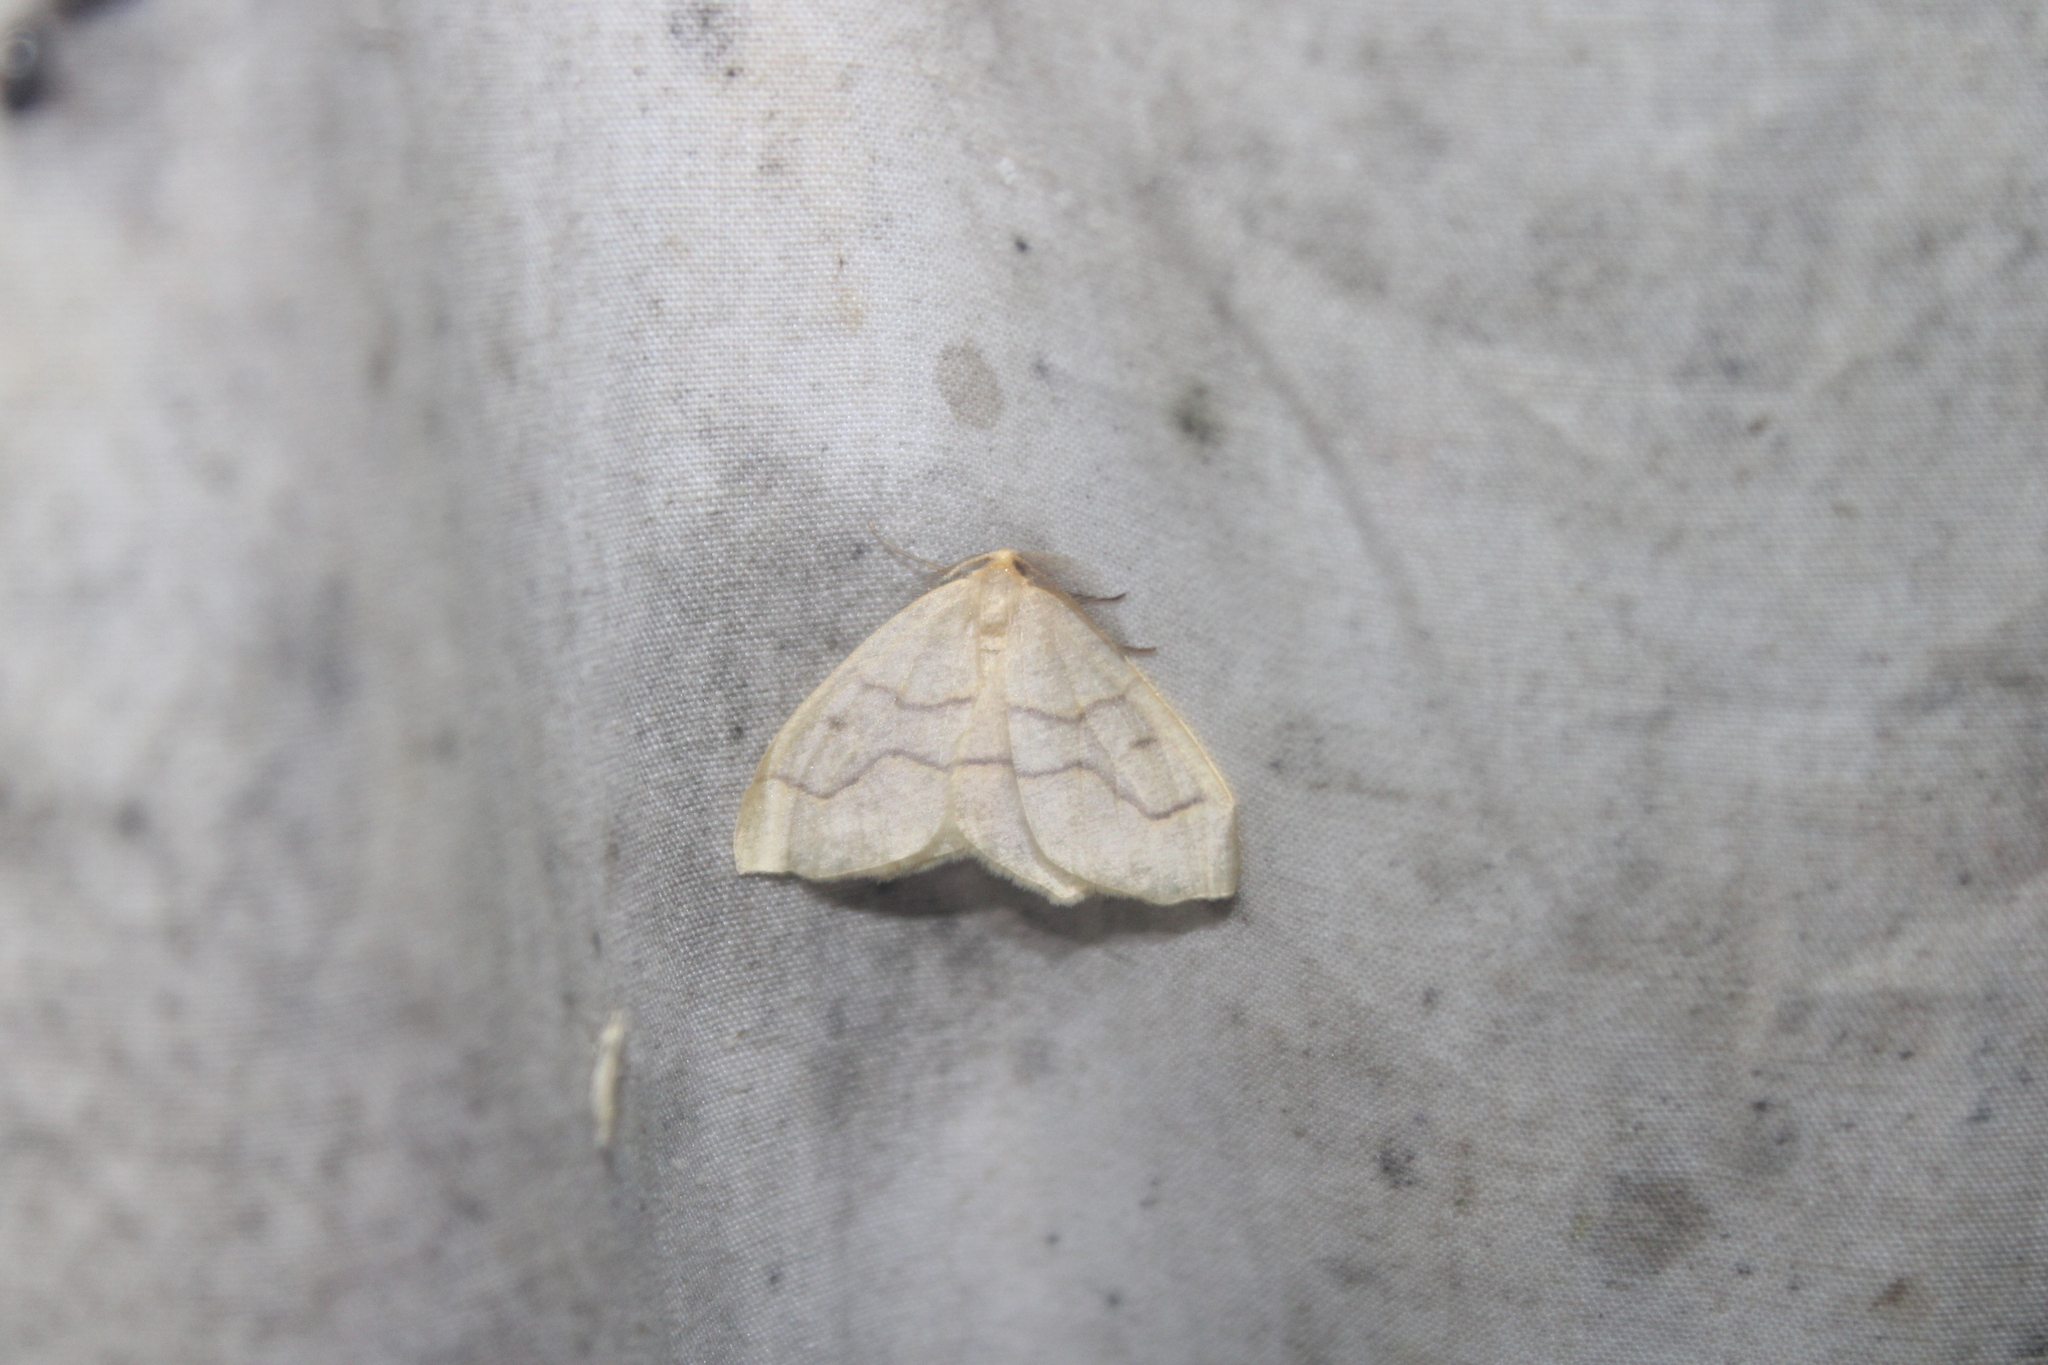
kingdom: Animalia
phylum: Arthropoda
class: Insecta
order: Lepidoptera
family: Geometridae
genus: Lambdina
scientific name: Lambdina fiscellaria
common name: Hemlock looper
